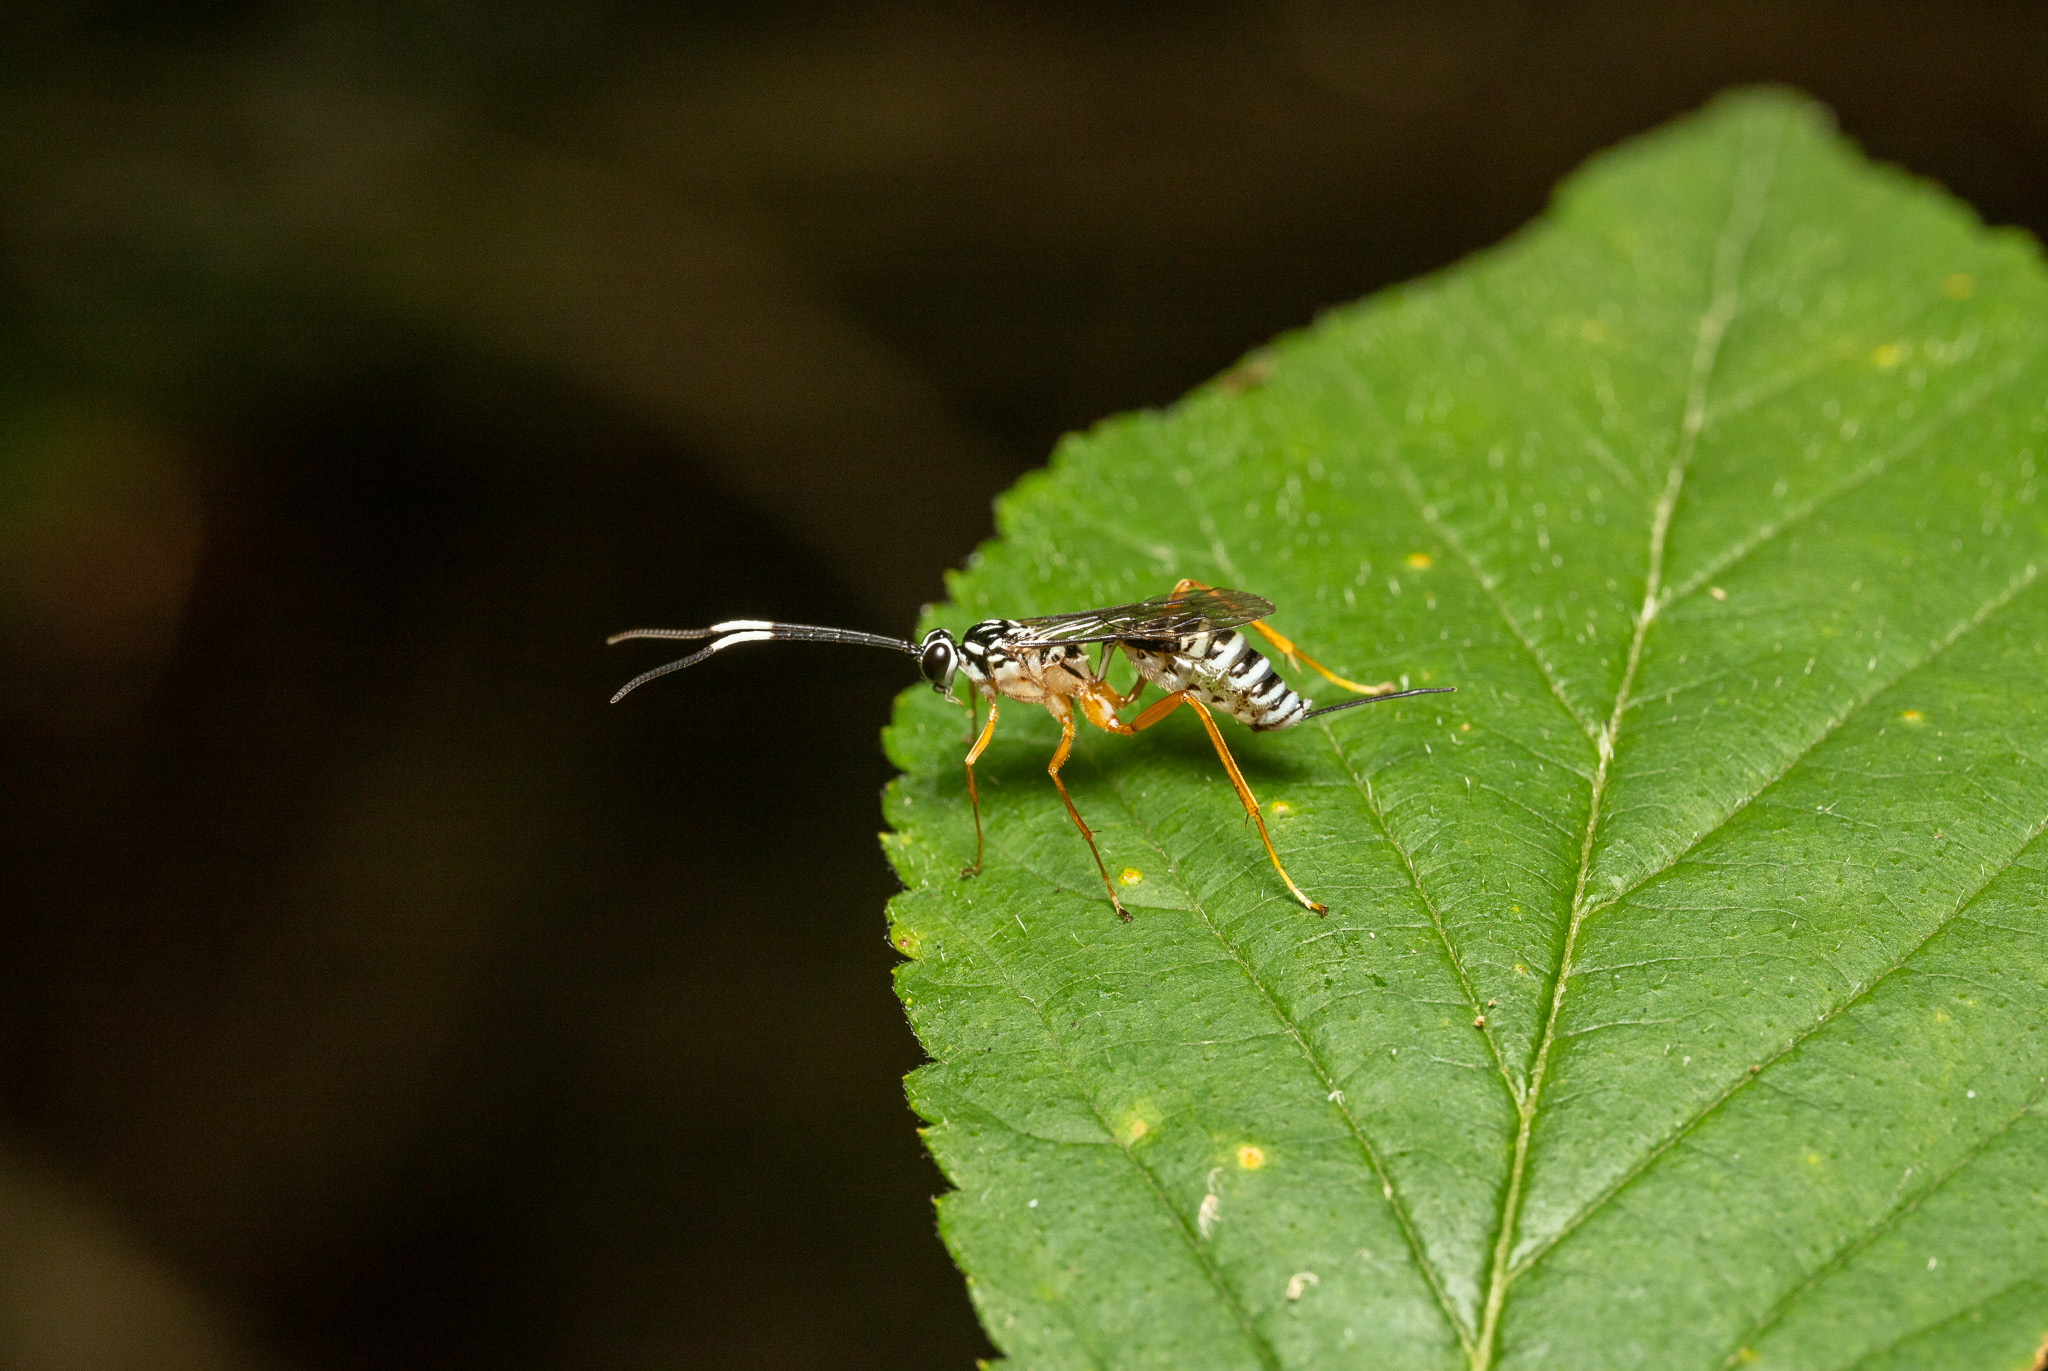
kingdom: Animalia
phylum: Arthropoda
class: Insecta
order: Hymenoptera
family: Ichneumonidae
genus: Polycyrtus
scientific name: Polycyrtus neglectus
